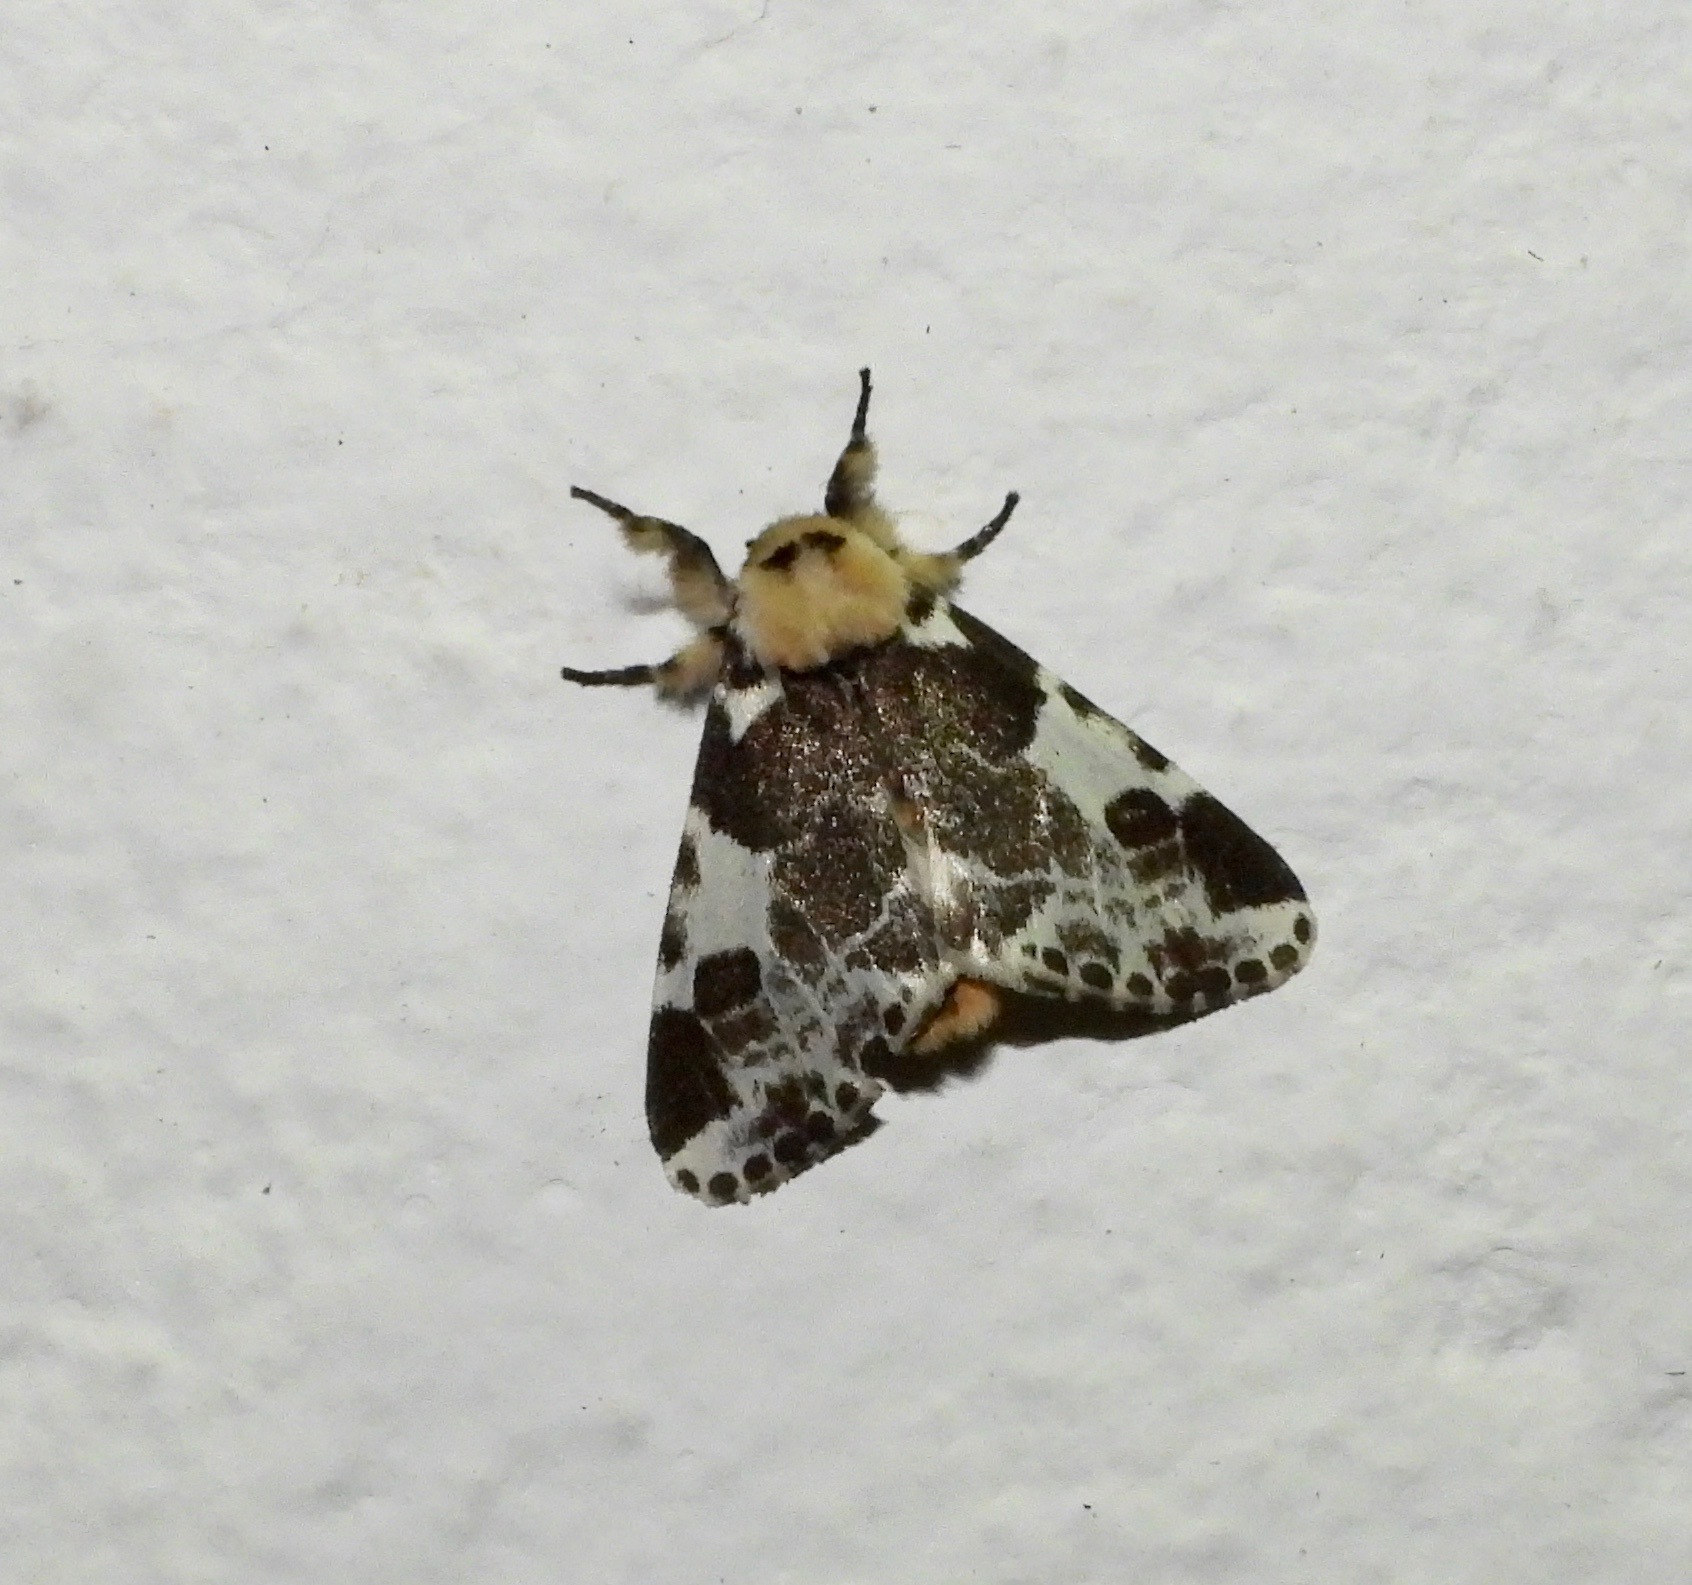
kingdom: Animalia
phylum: Arthropoda
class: Insecta
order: Lepidoptera
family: Erebidae
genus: Sciatta
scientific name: Sciatta inconcisa
